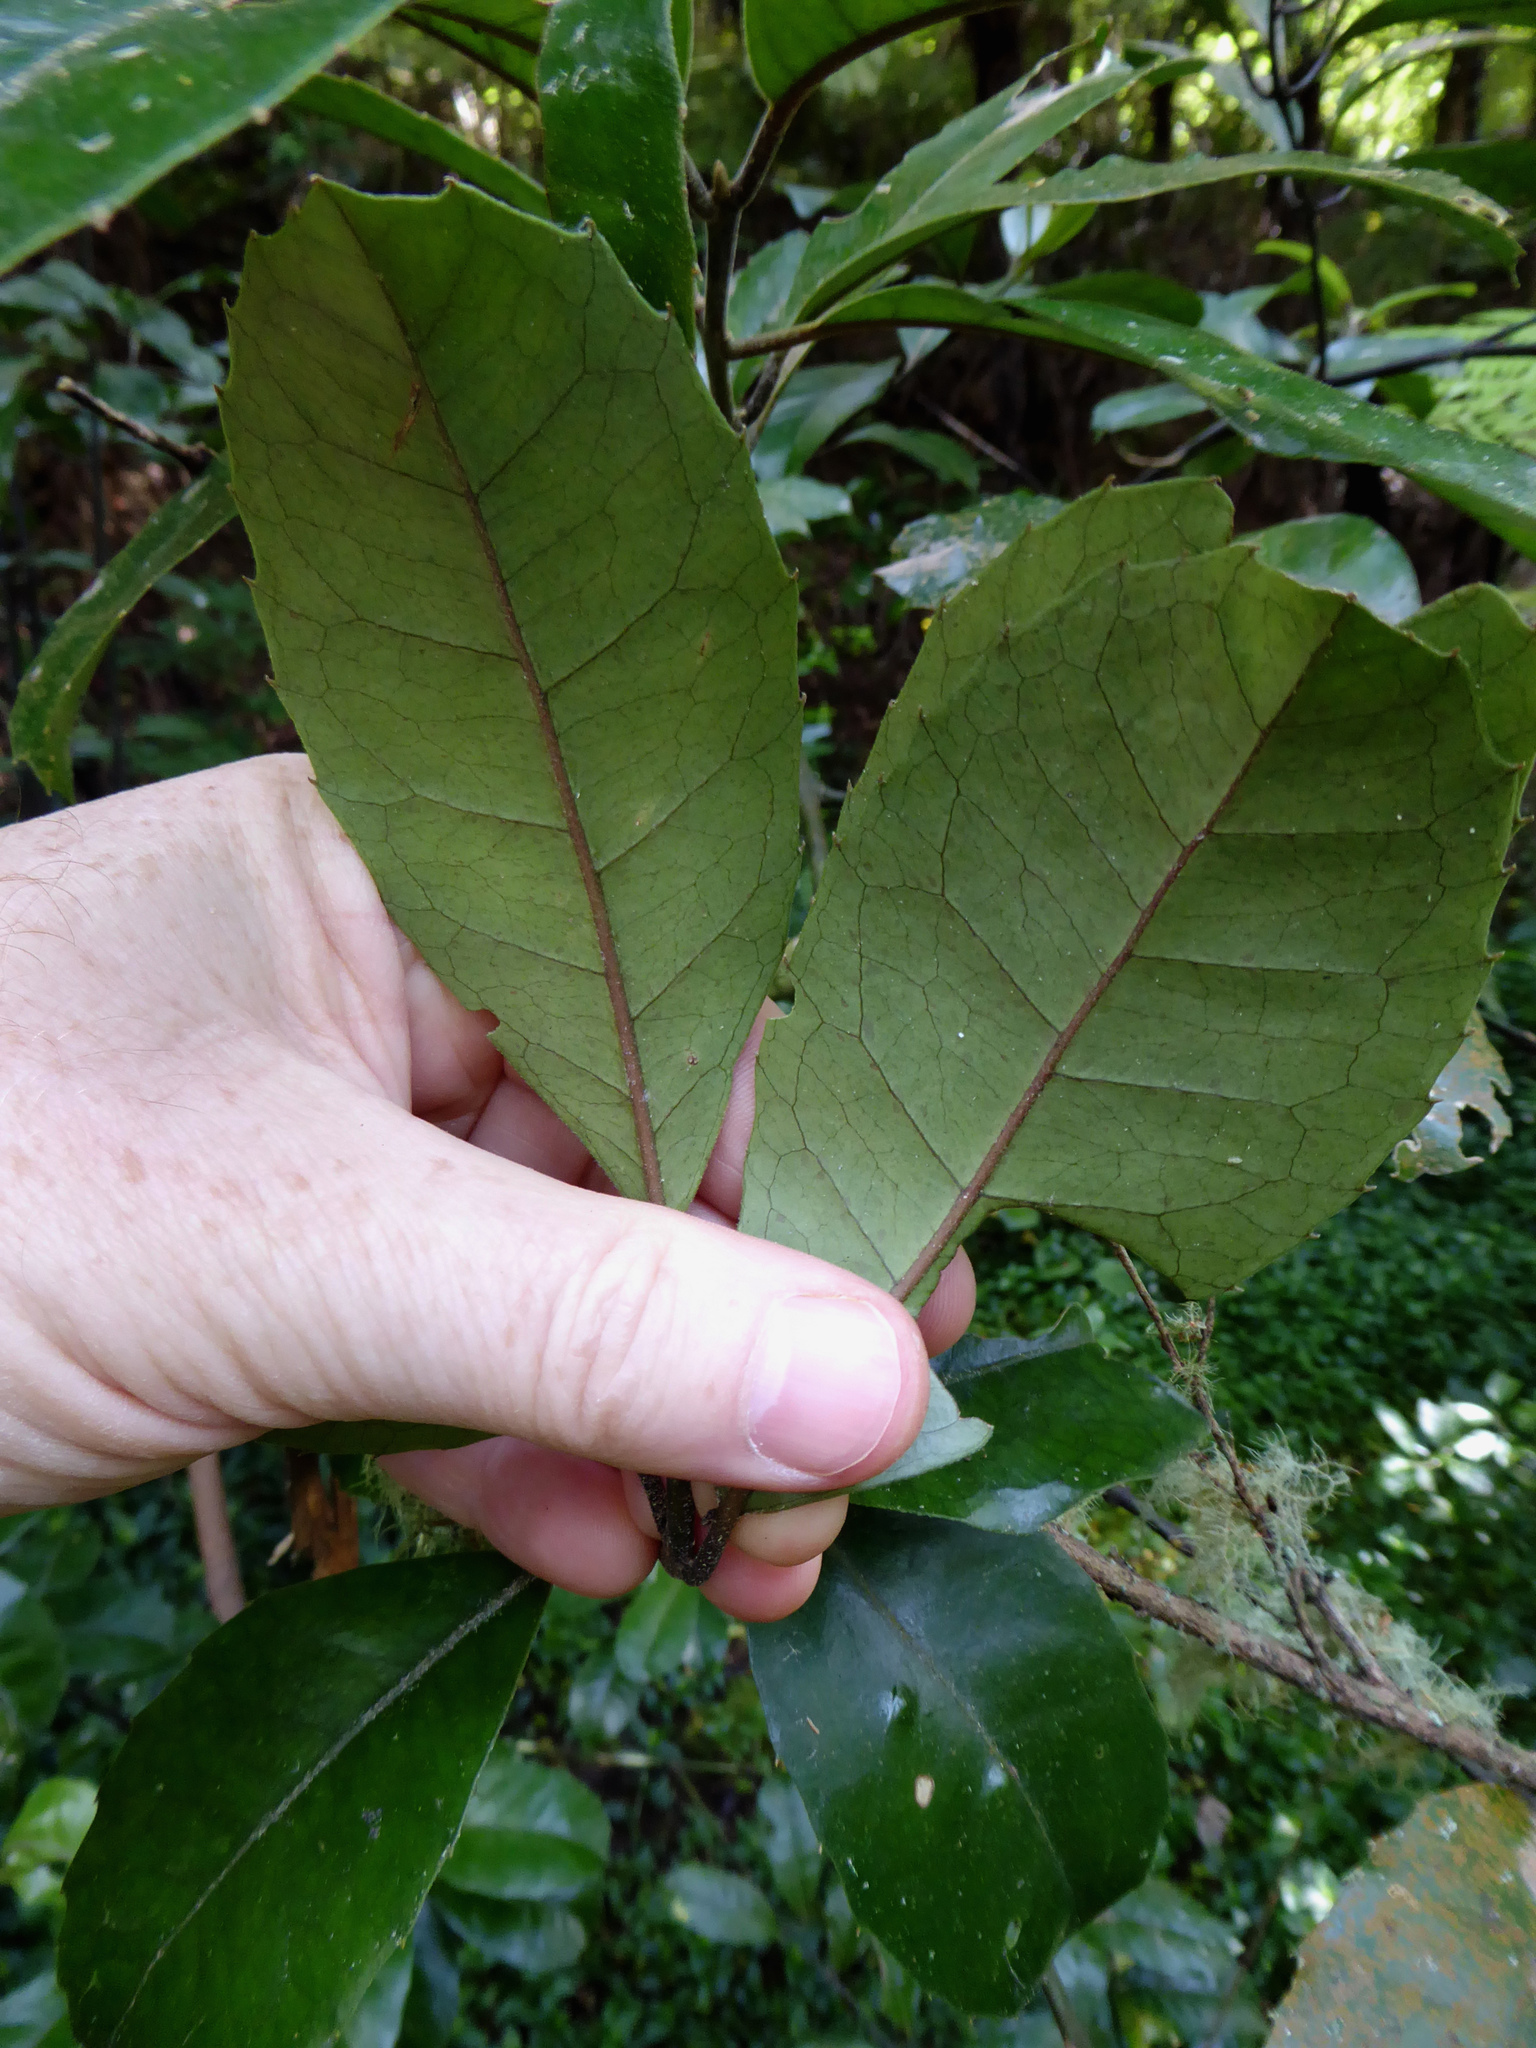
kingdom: Plantae
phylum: Tracheophyta
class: Magnoliopsida
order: Laurales
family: Monimiaceae
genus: Hedycarya
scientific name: Hedycarya arborea
